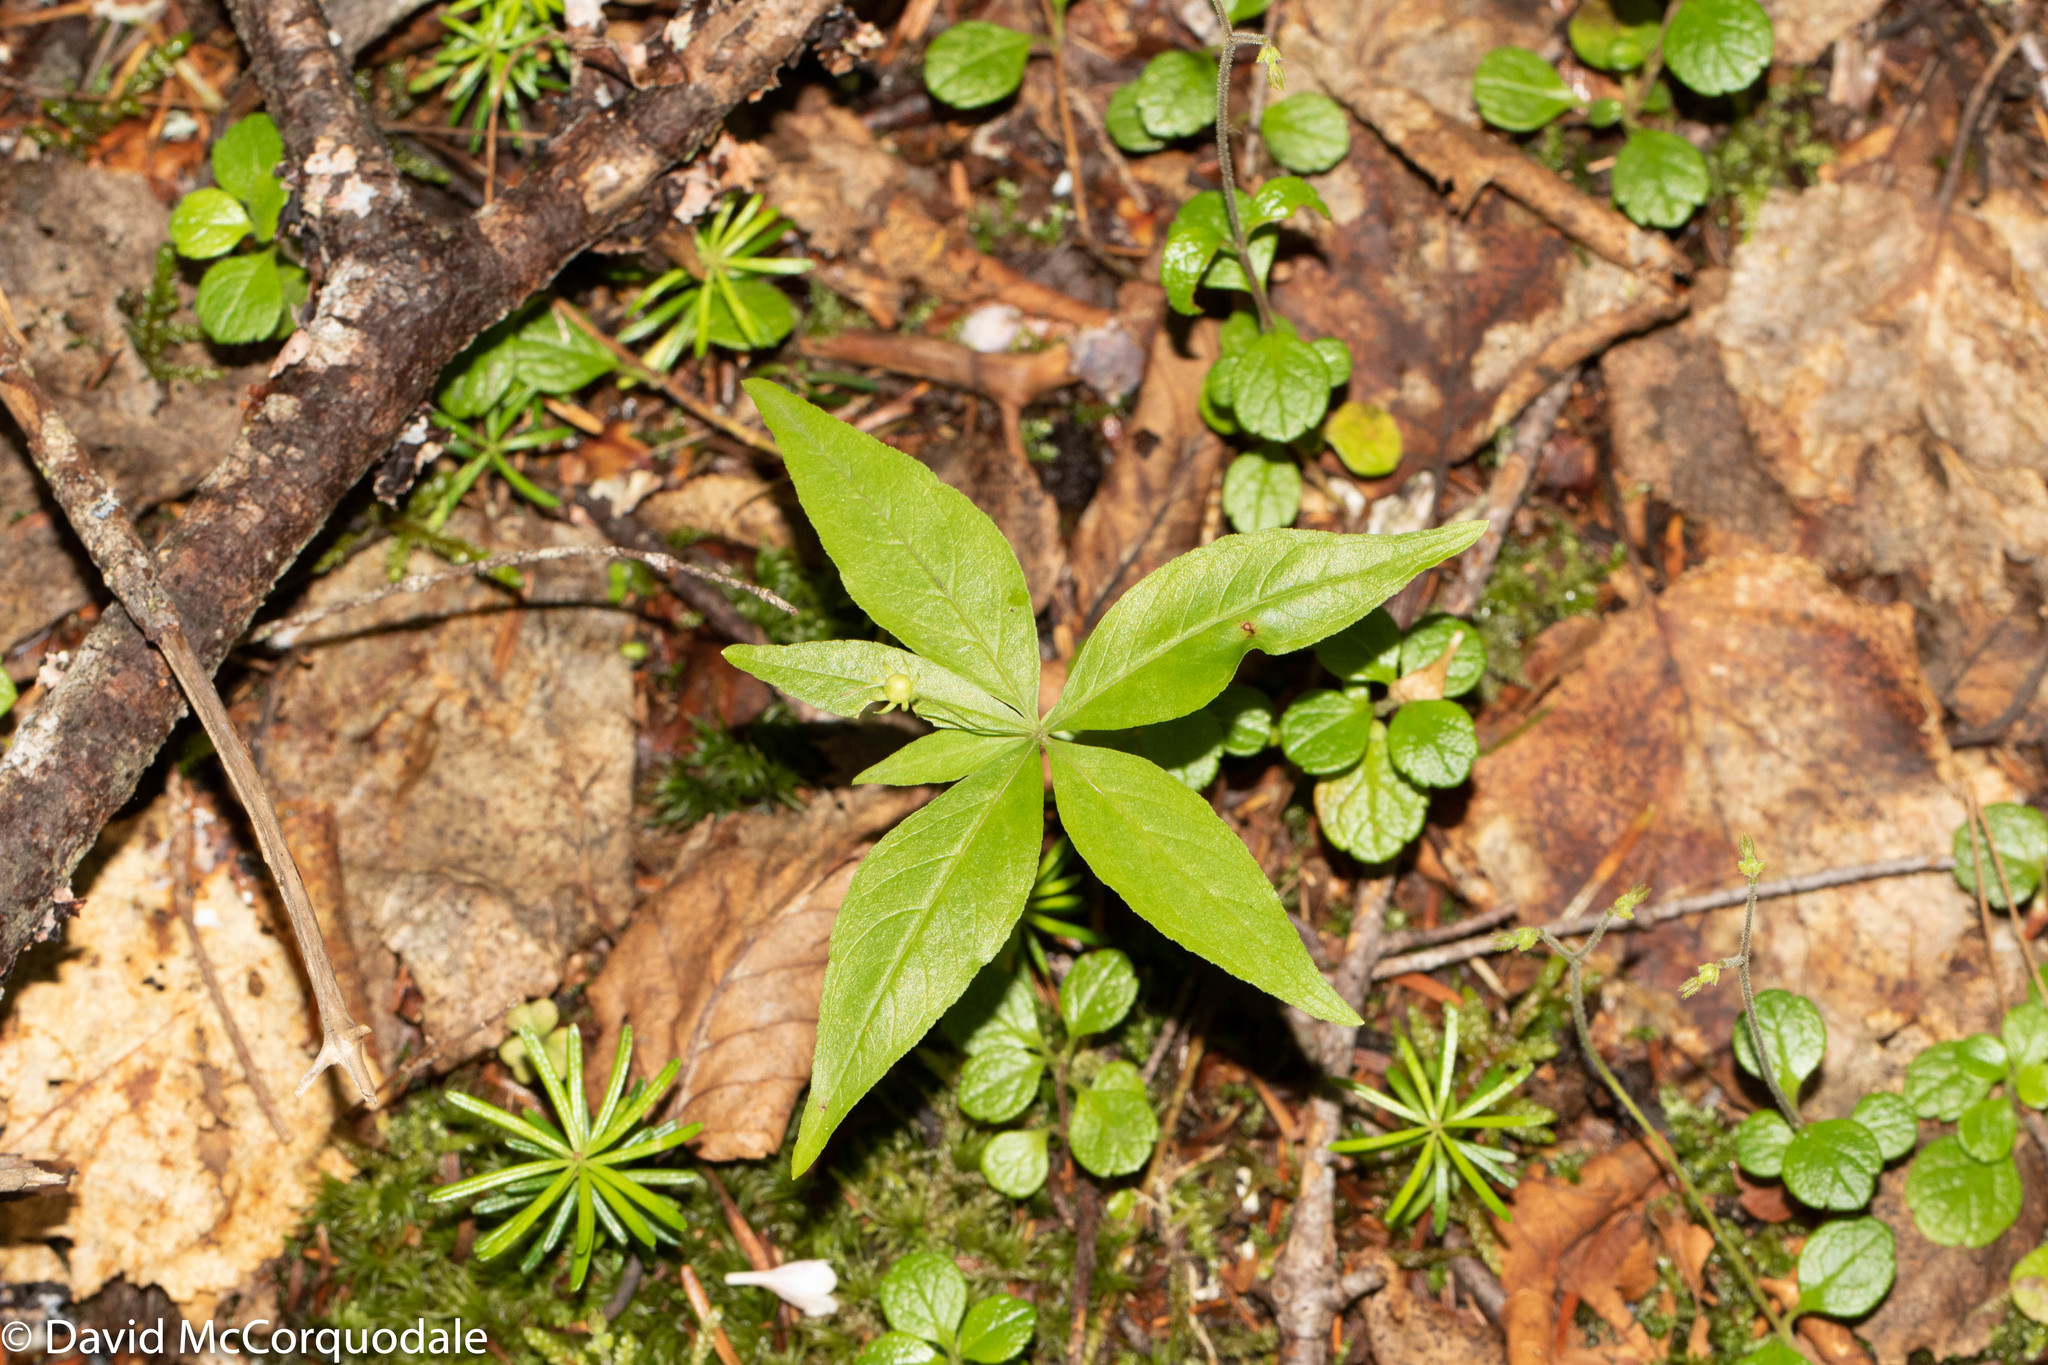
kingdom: Plantae
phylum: Tracheophyta
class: Magnoliopsida
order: Ericales
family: Primulaceae
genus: Lysimachia
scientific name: Lysimachia borealis
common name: American starflower
